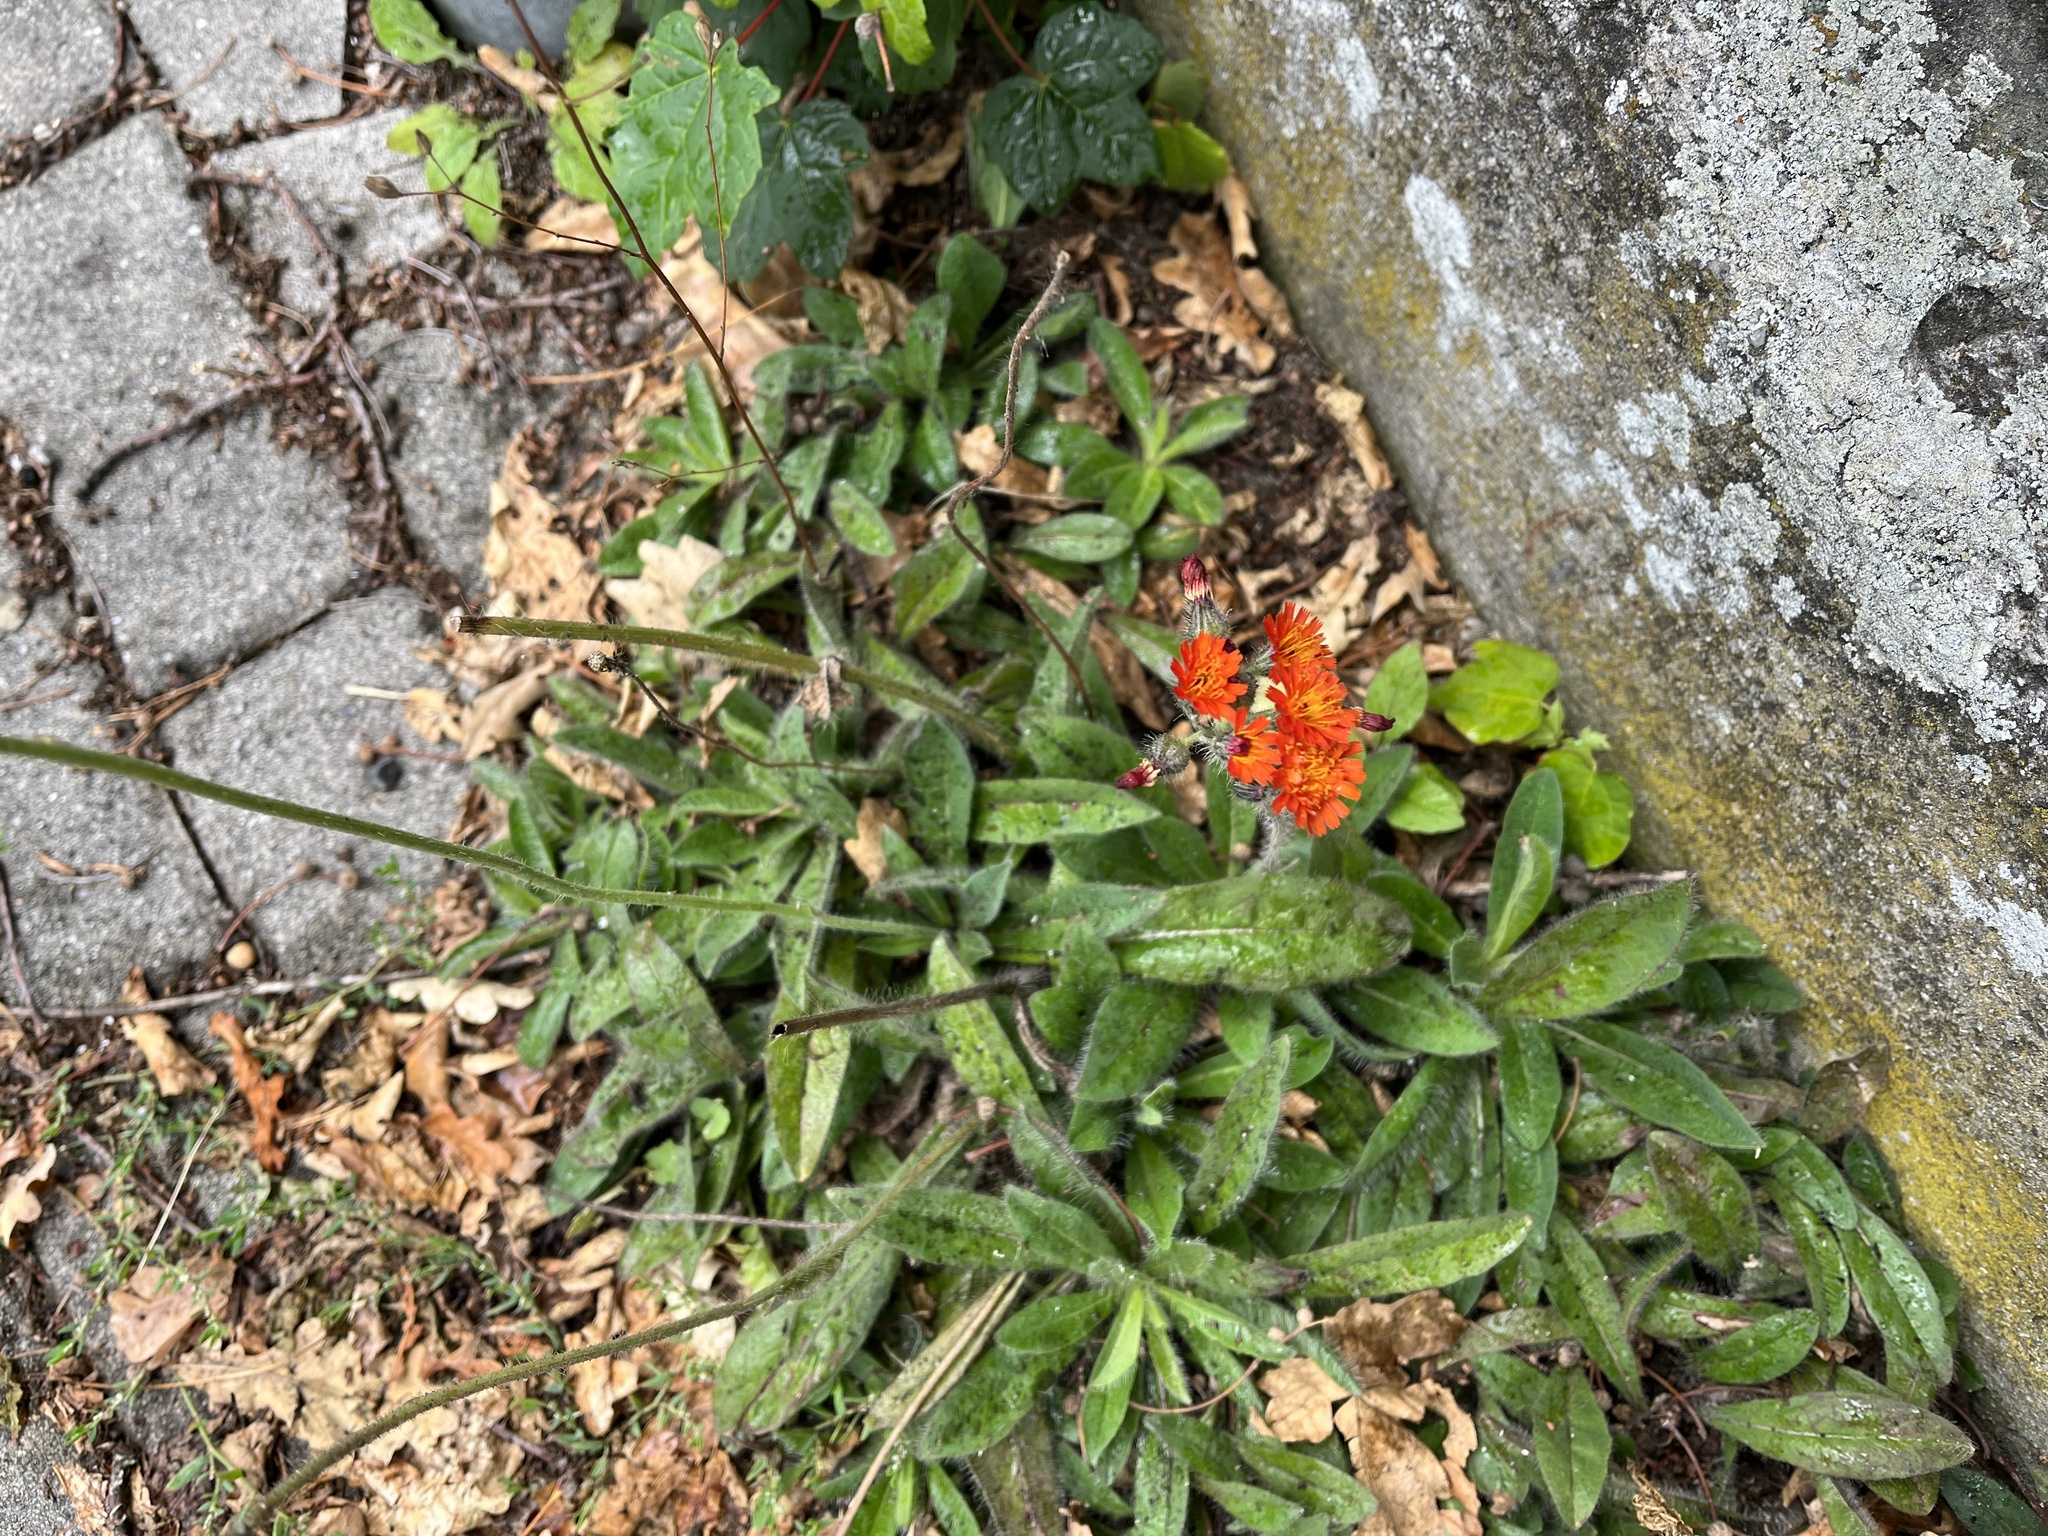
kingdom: Plantae
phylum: Tracheophyta
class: Magnoliopsida
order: Asterales
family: Asteraceae
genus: Pilosella
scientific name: Pilosella aurantiaca
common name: Fox-and-cubs
